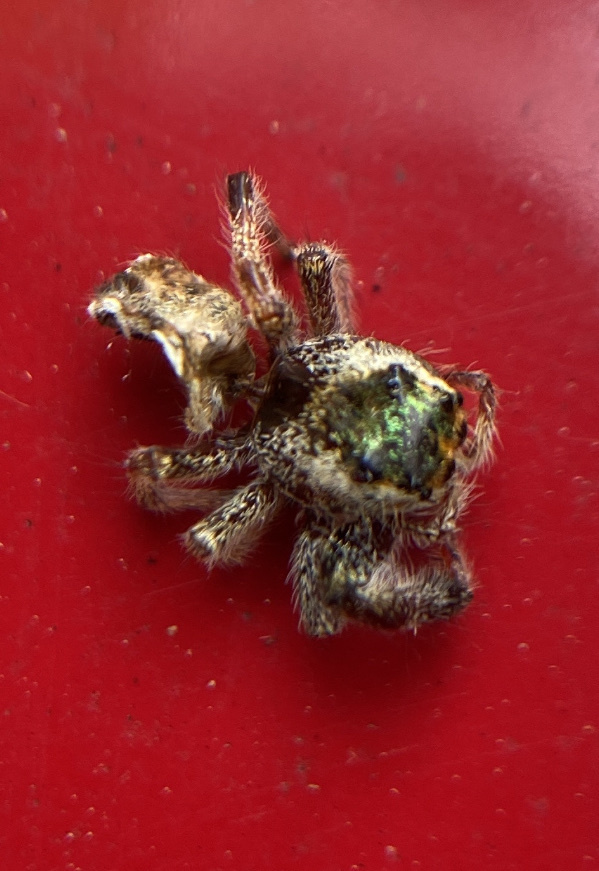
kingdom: Animalia
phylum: Arthropoda
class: Arachnida
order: Araneae
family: Salticidae
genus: Paraphidippus
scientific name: Paraphidippus aurantius
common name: Jumping spiders
